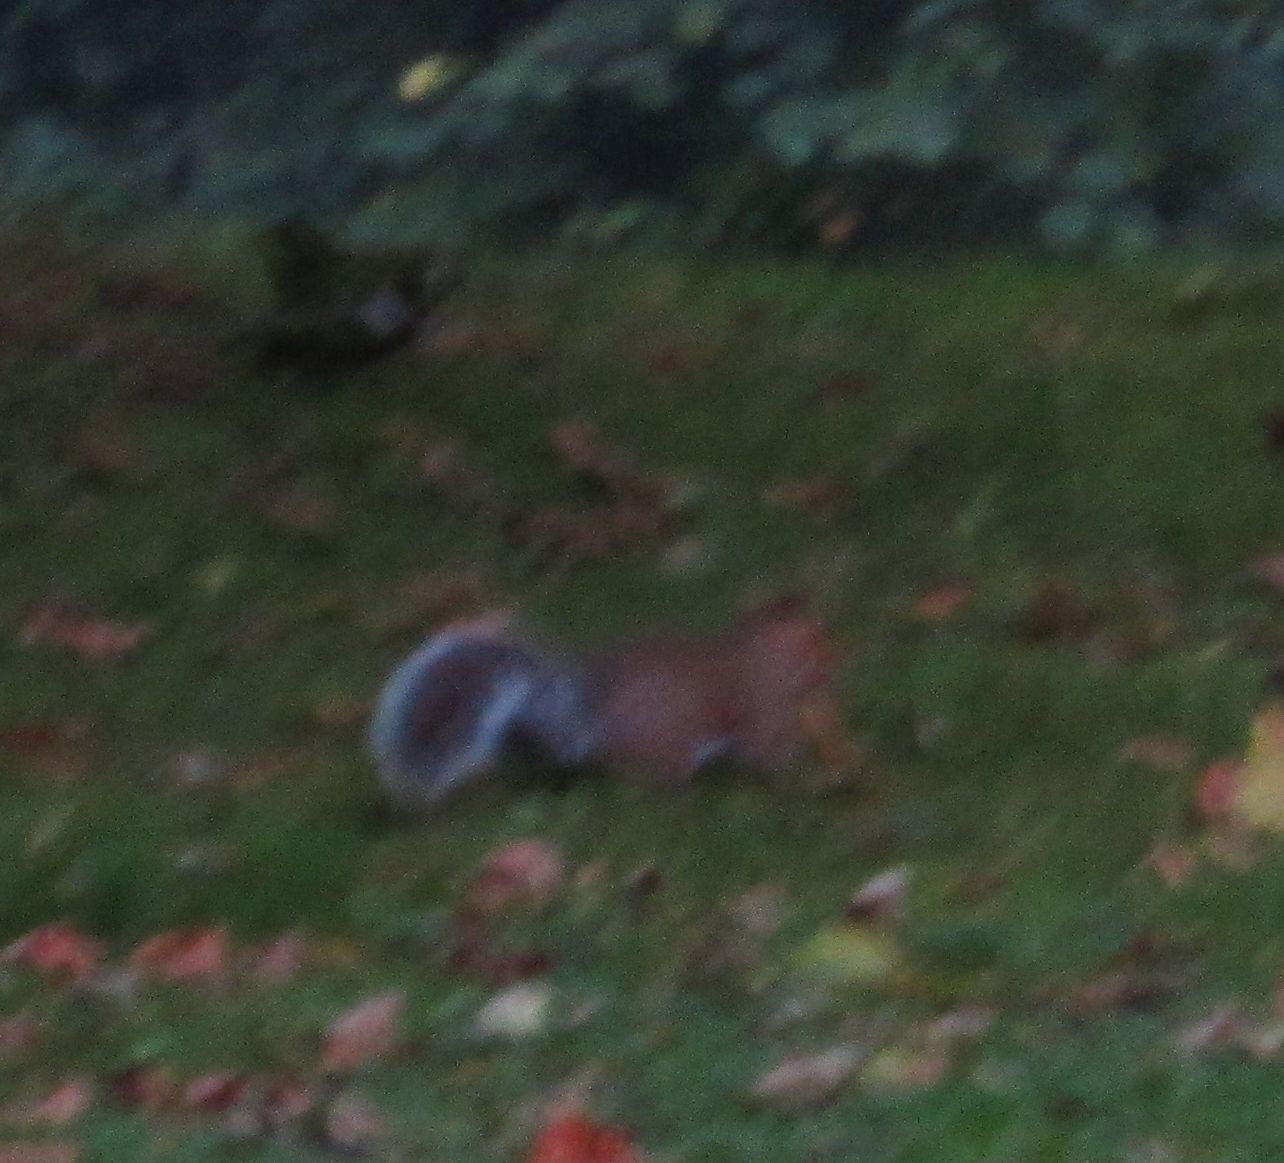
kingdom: Animalia
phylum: Chordata
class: Mammalia
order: Rodentia
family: Sciuridae
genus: Sciurus
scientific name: Sciurus carolinensis
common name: Eastern gray squirrel
